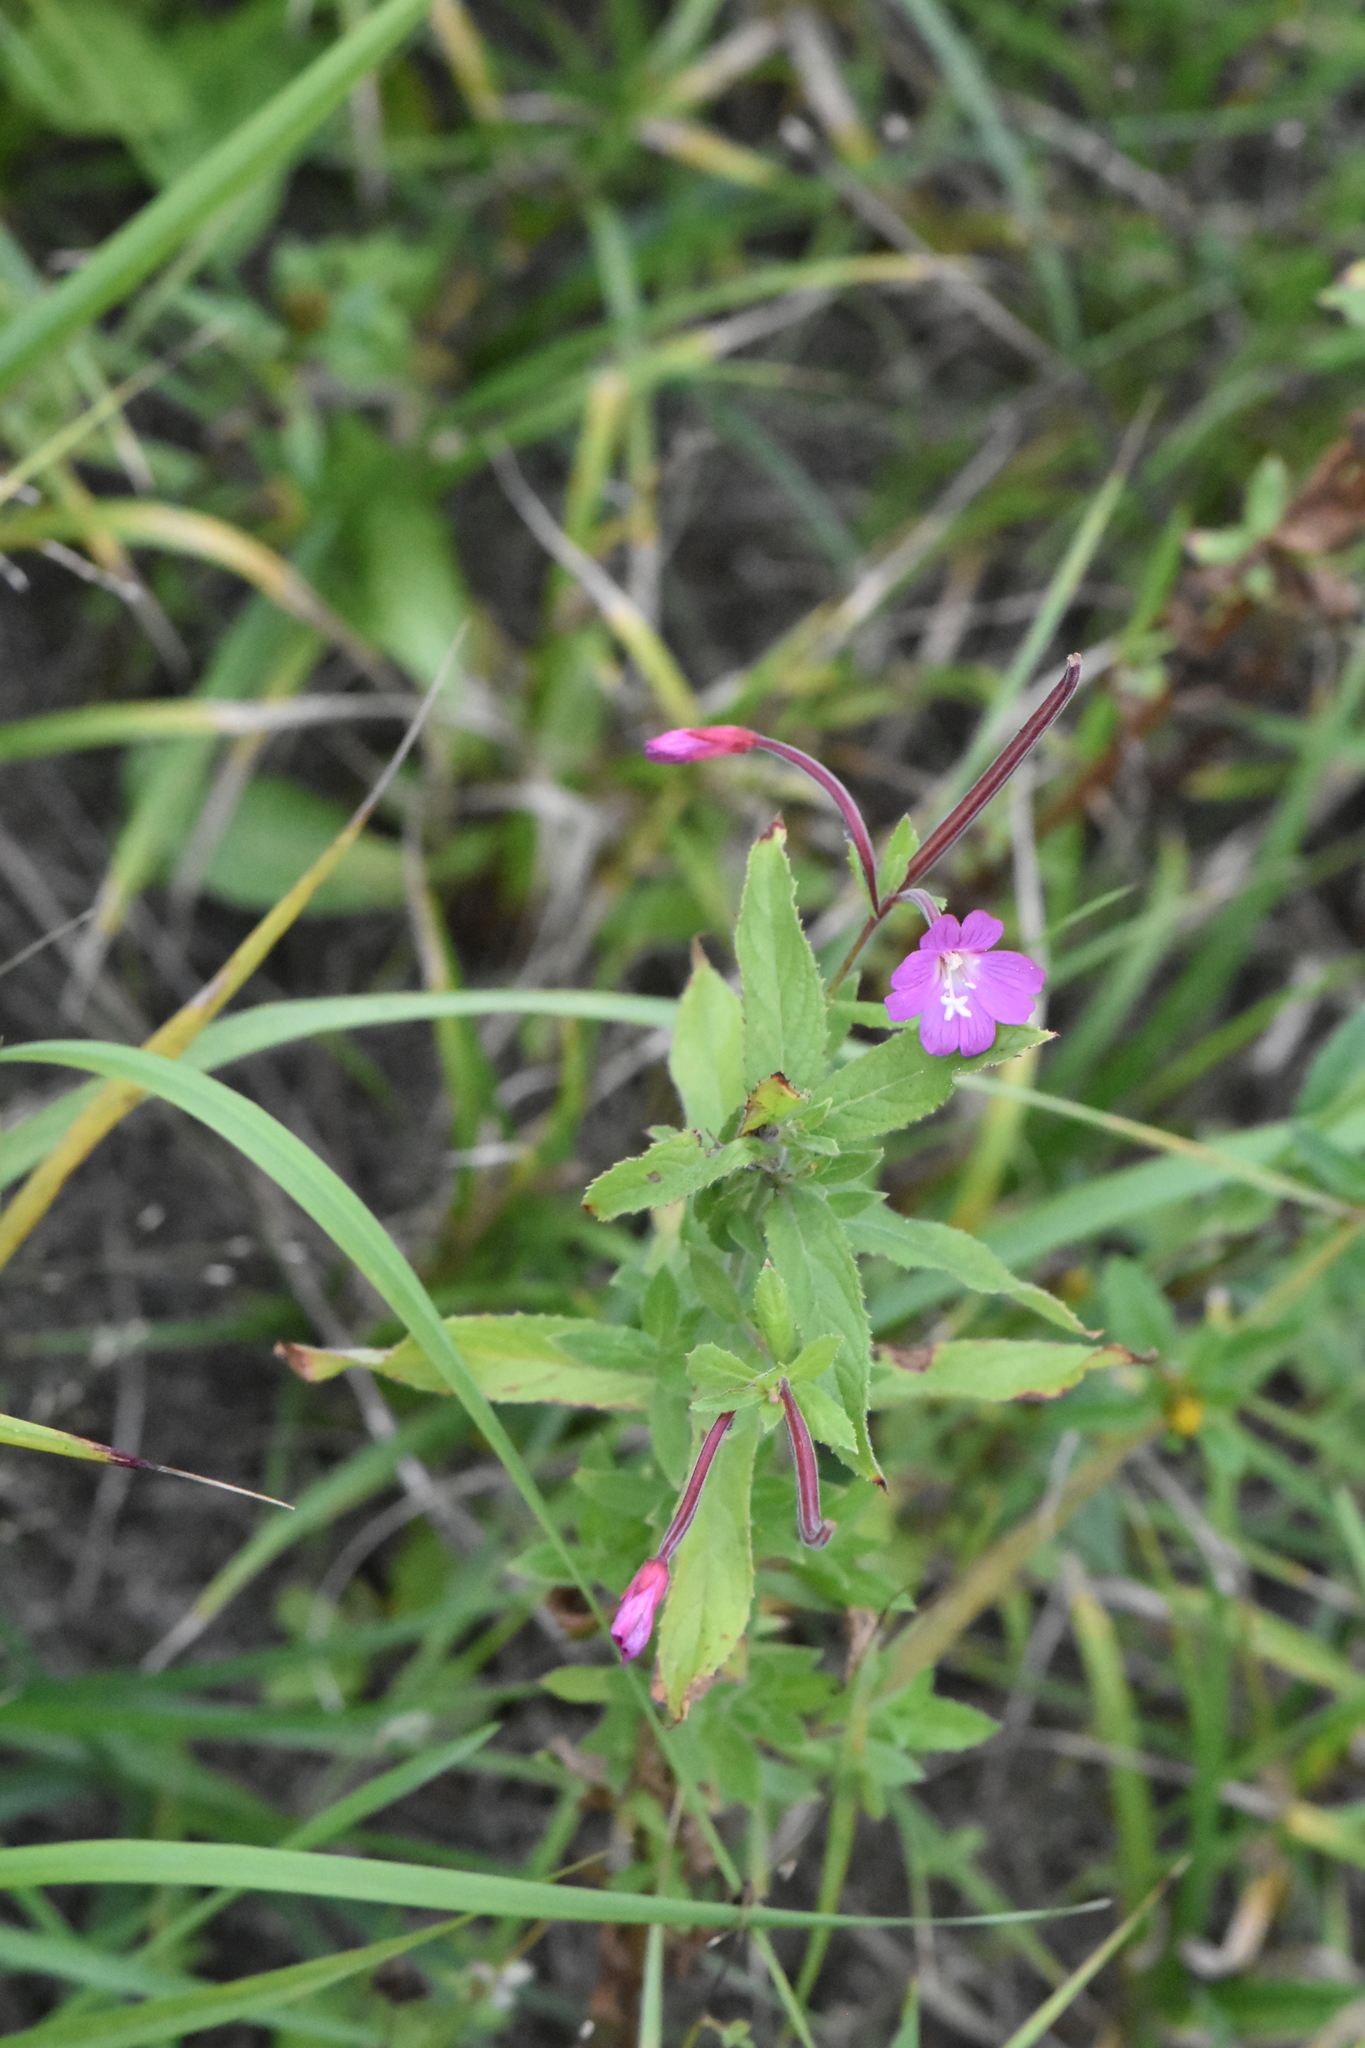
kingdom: Plantae
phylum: Tracheophyta
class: Magnoliopsida
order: Myrtales
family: Onagraceae
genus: Epilobium
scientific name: Epilobium hirsutum
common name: Great willowherb
